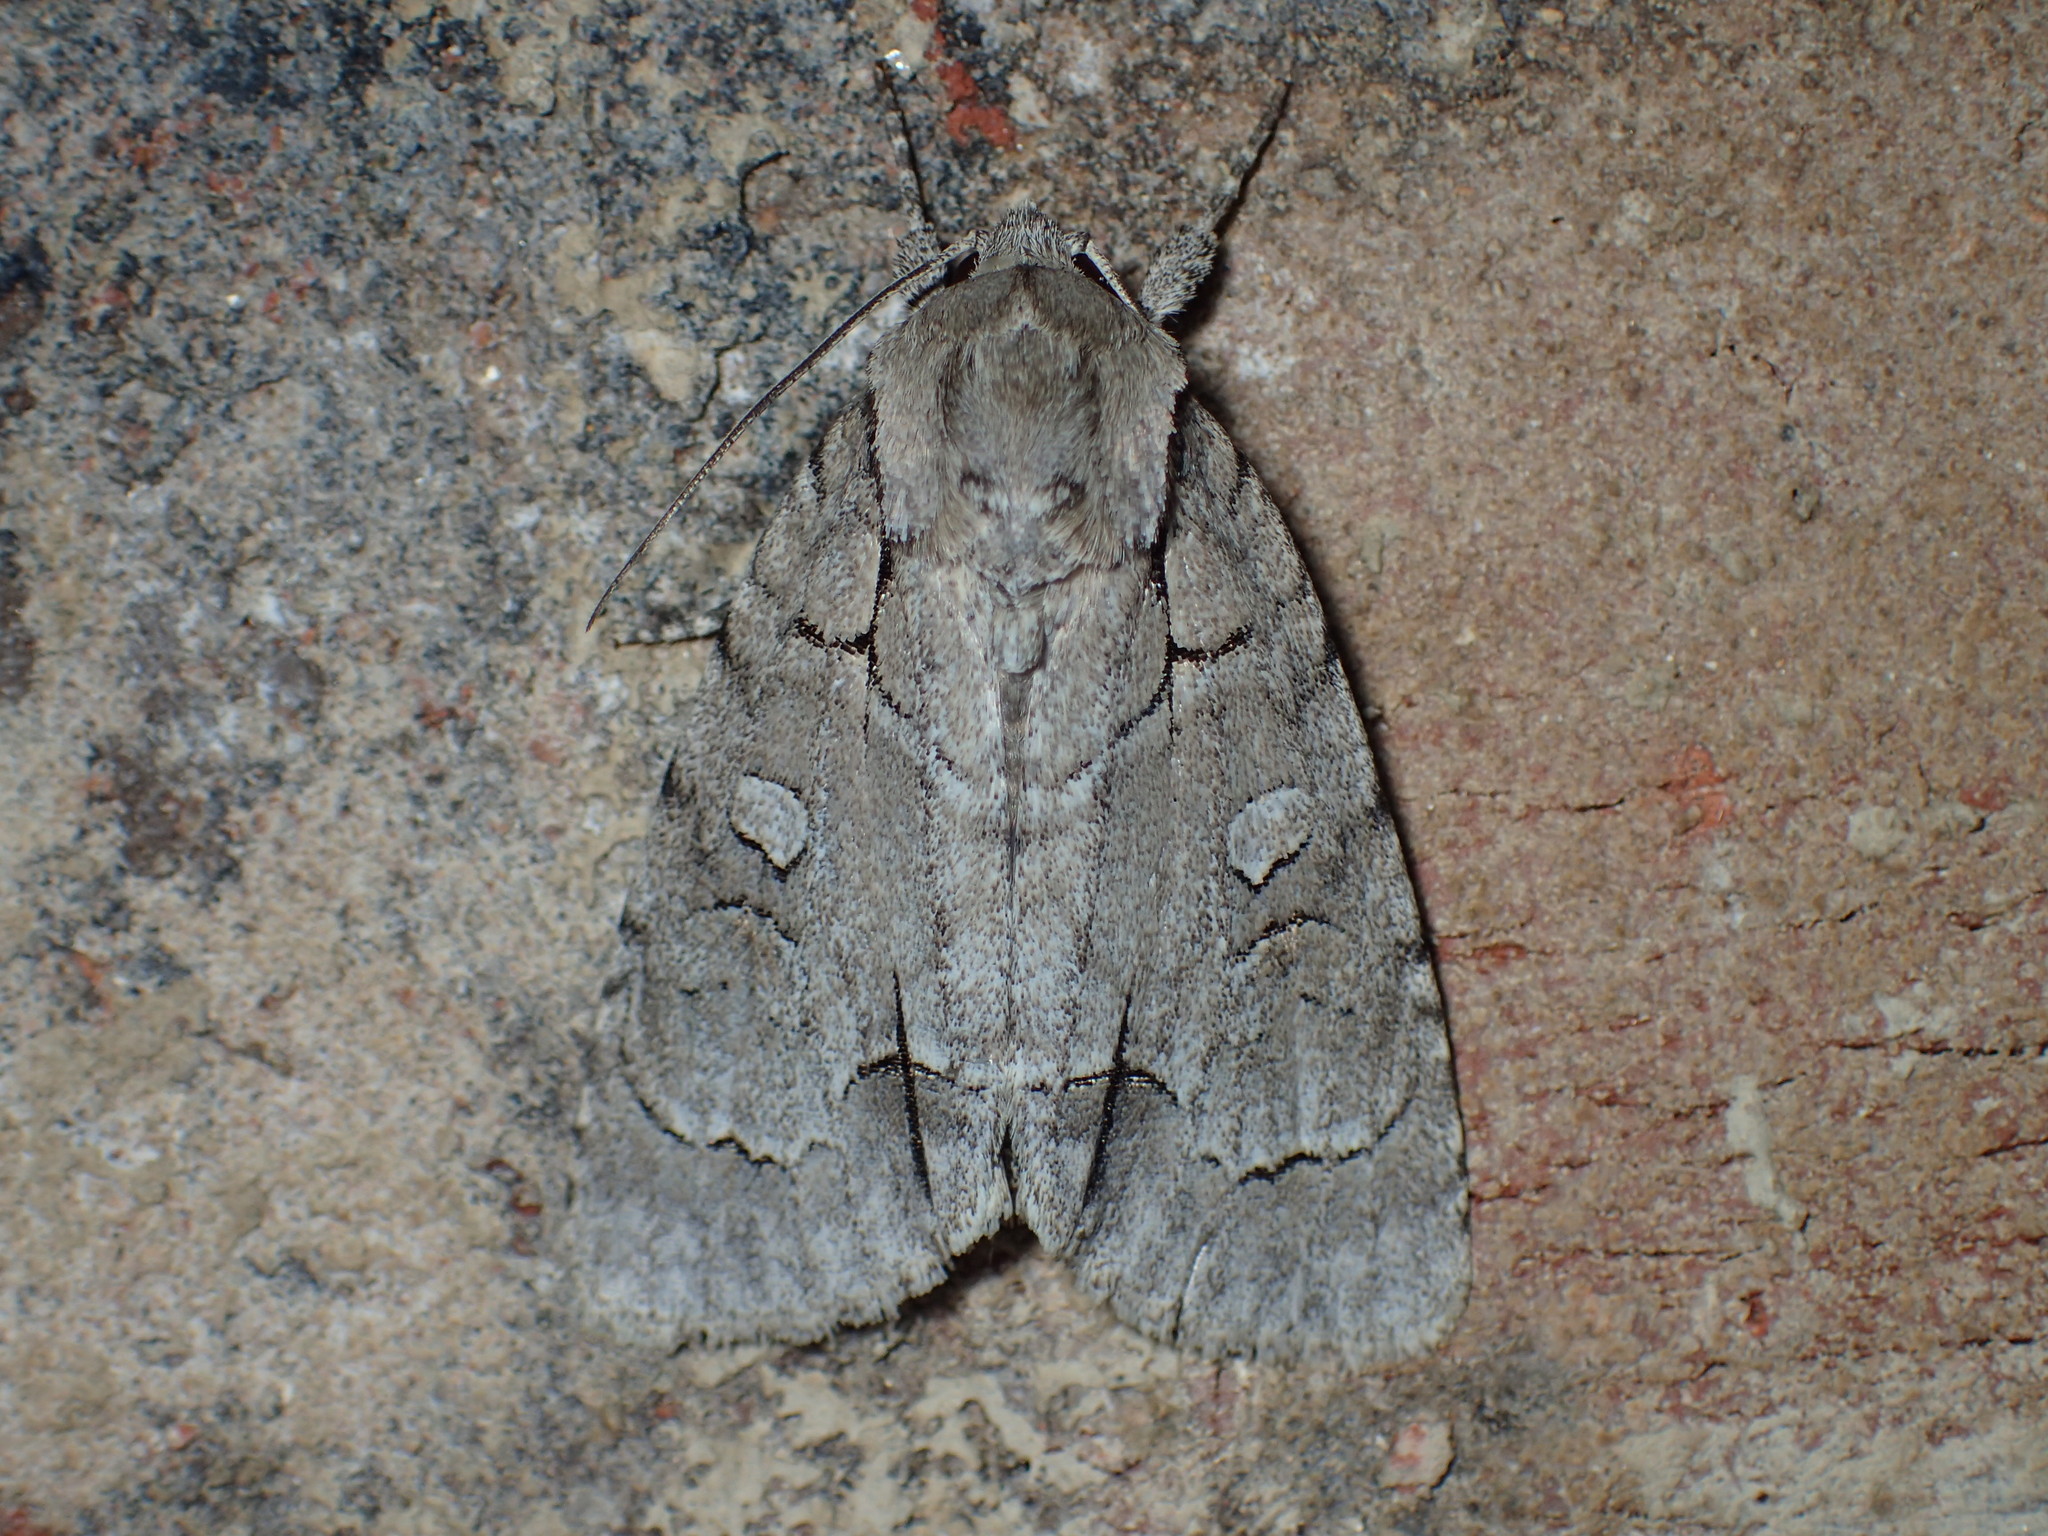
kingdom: Animalia
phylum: Arthropoda
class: Insecta
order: Lepidoptera
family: Noctuidae
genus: Acronicta
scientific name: Acronicta radcliffei
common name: Radcliffe's dagger
